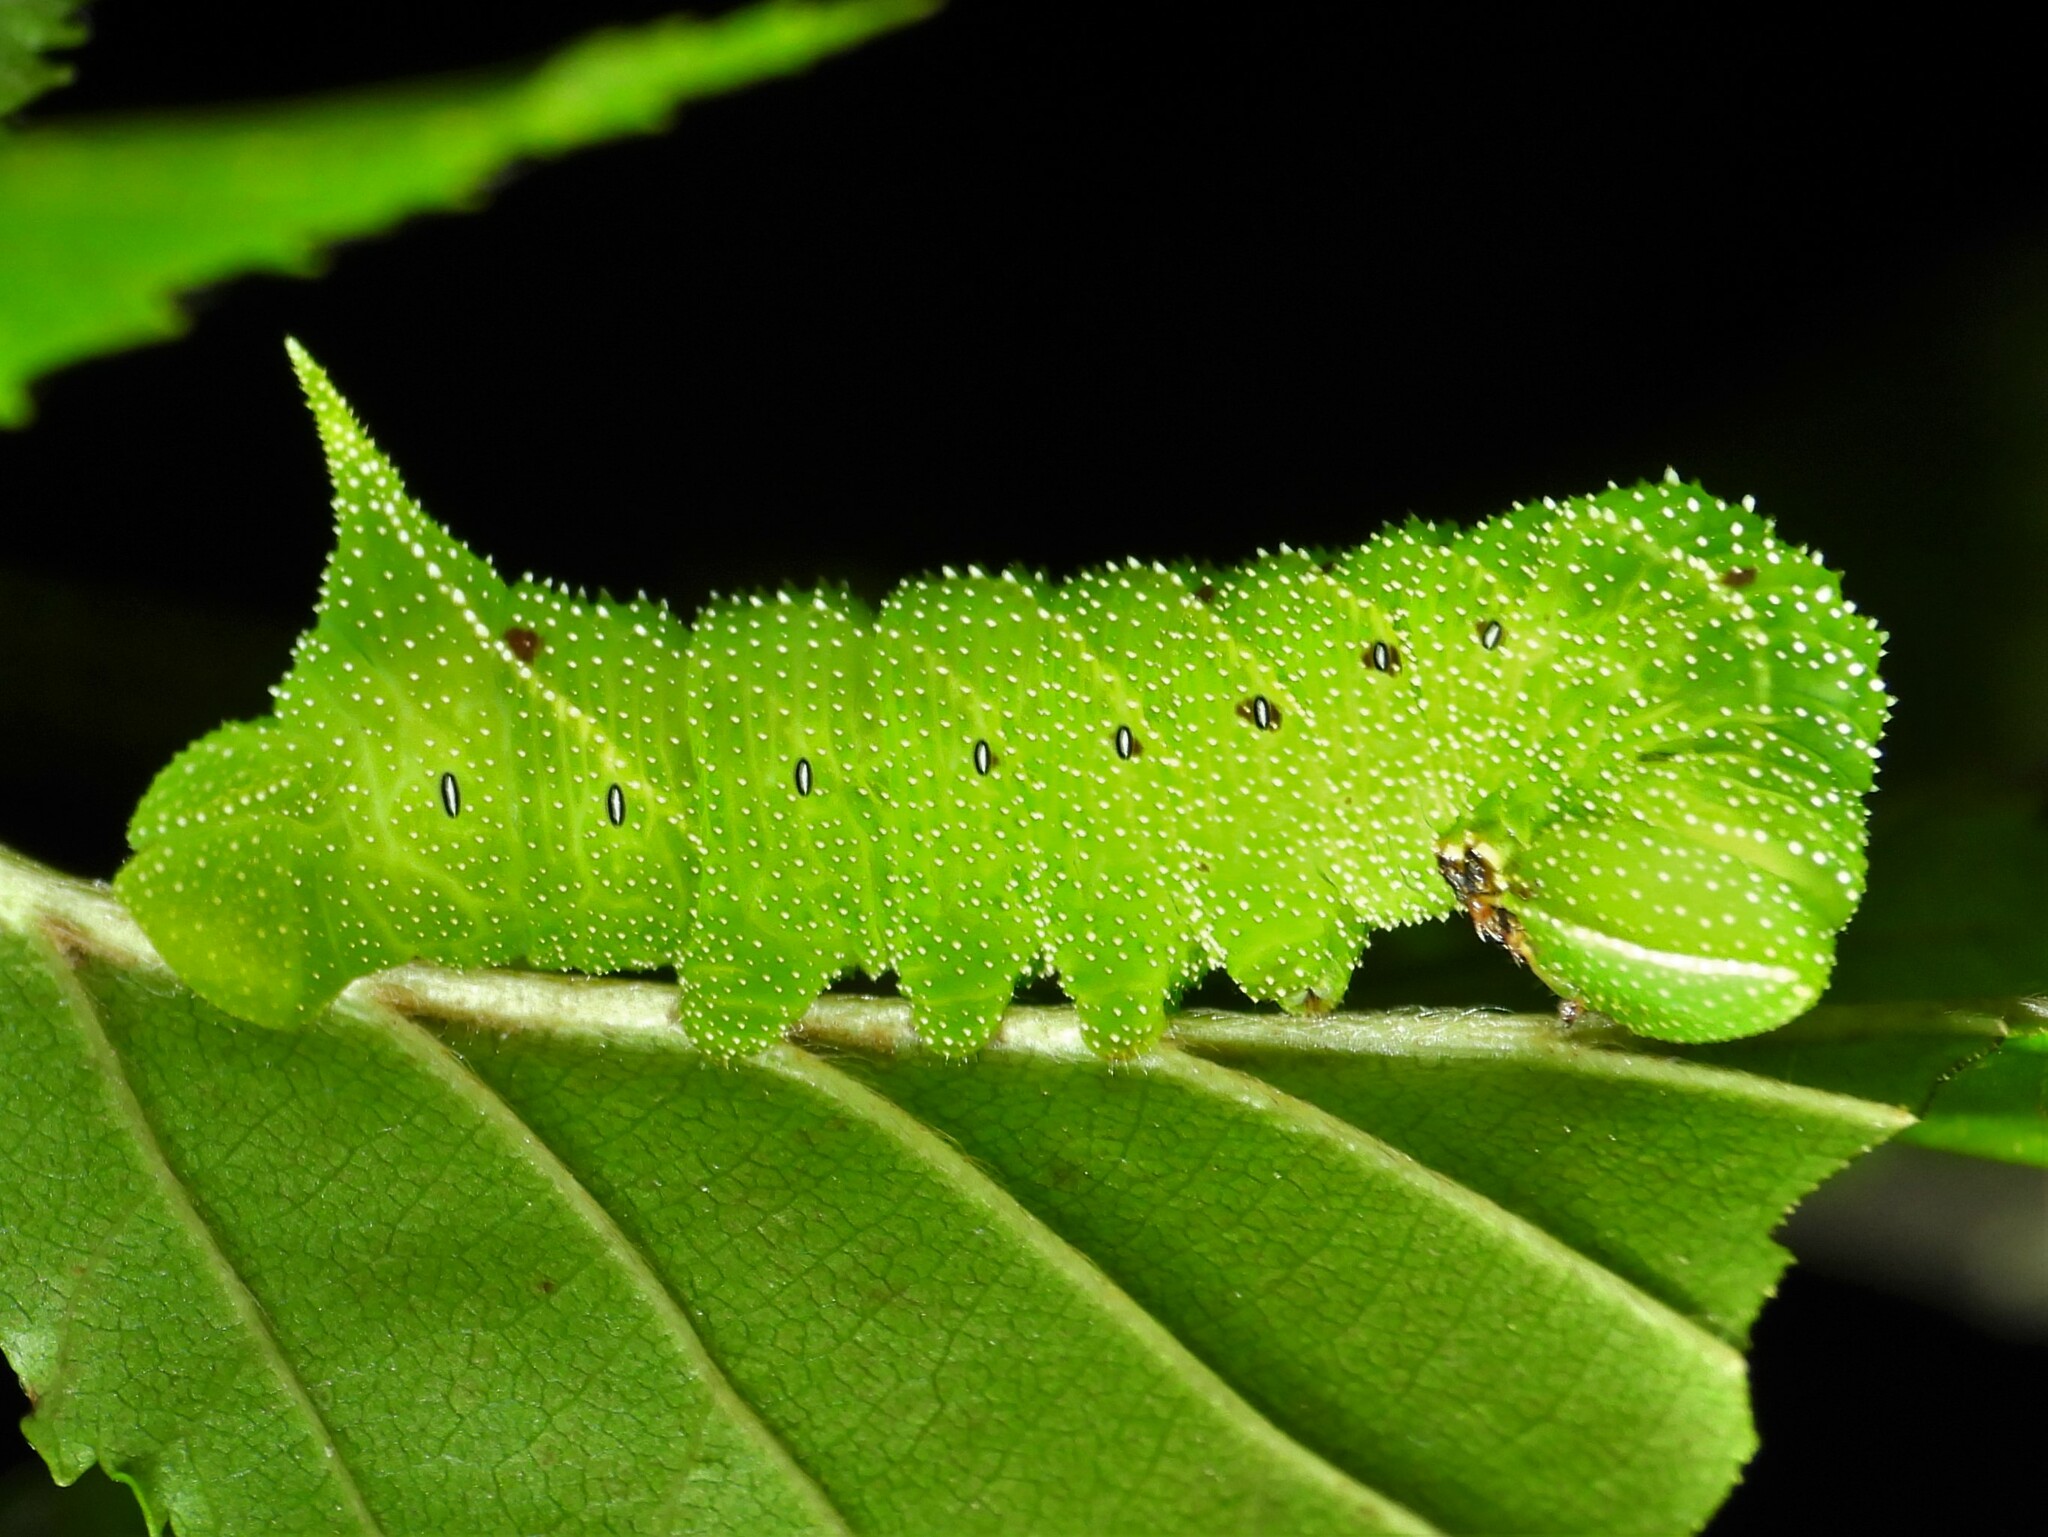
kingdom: Animalia
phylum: Arthropoda
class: Insecta
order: Lepidoptera
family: Sphingidae
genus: Paonias
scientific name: Paonias excaecata
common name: Blind-eyed sphinx
